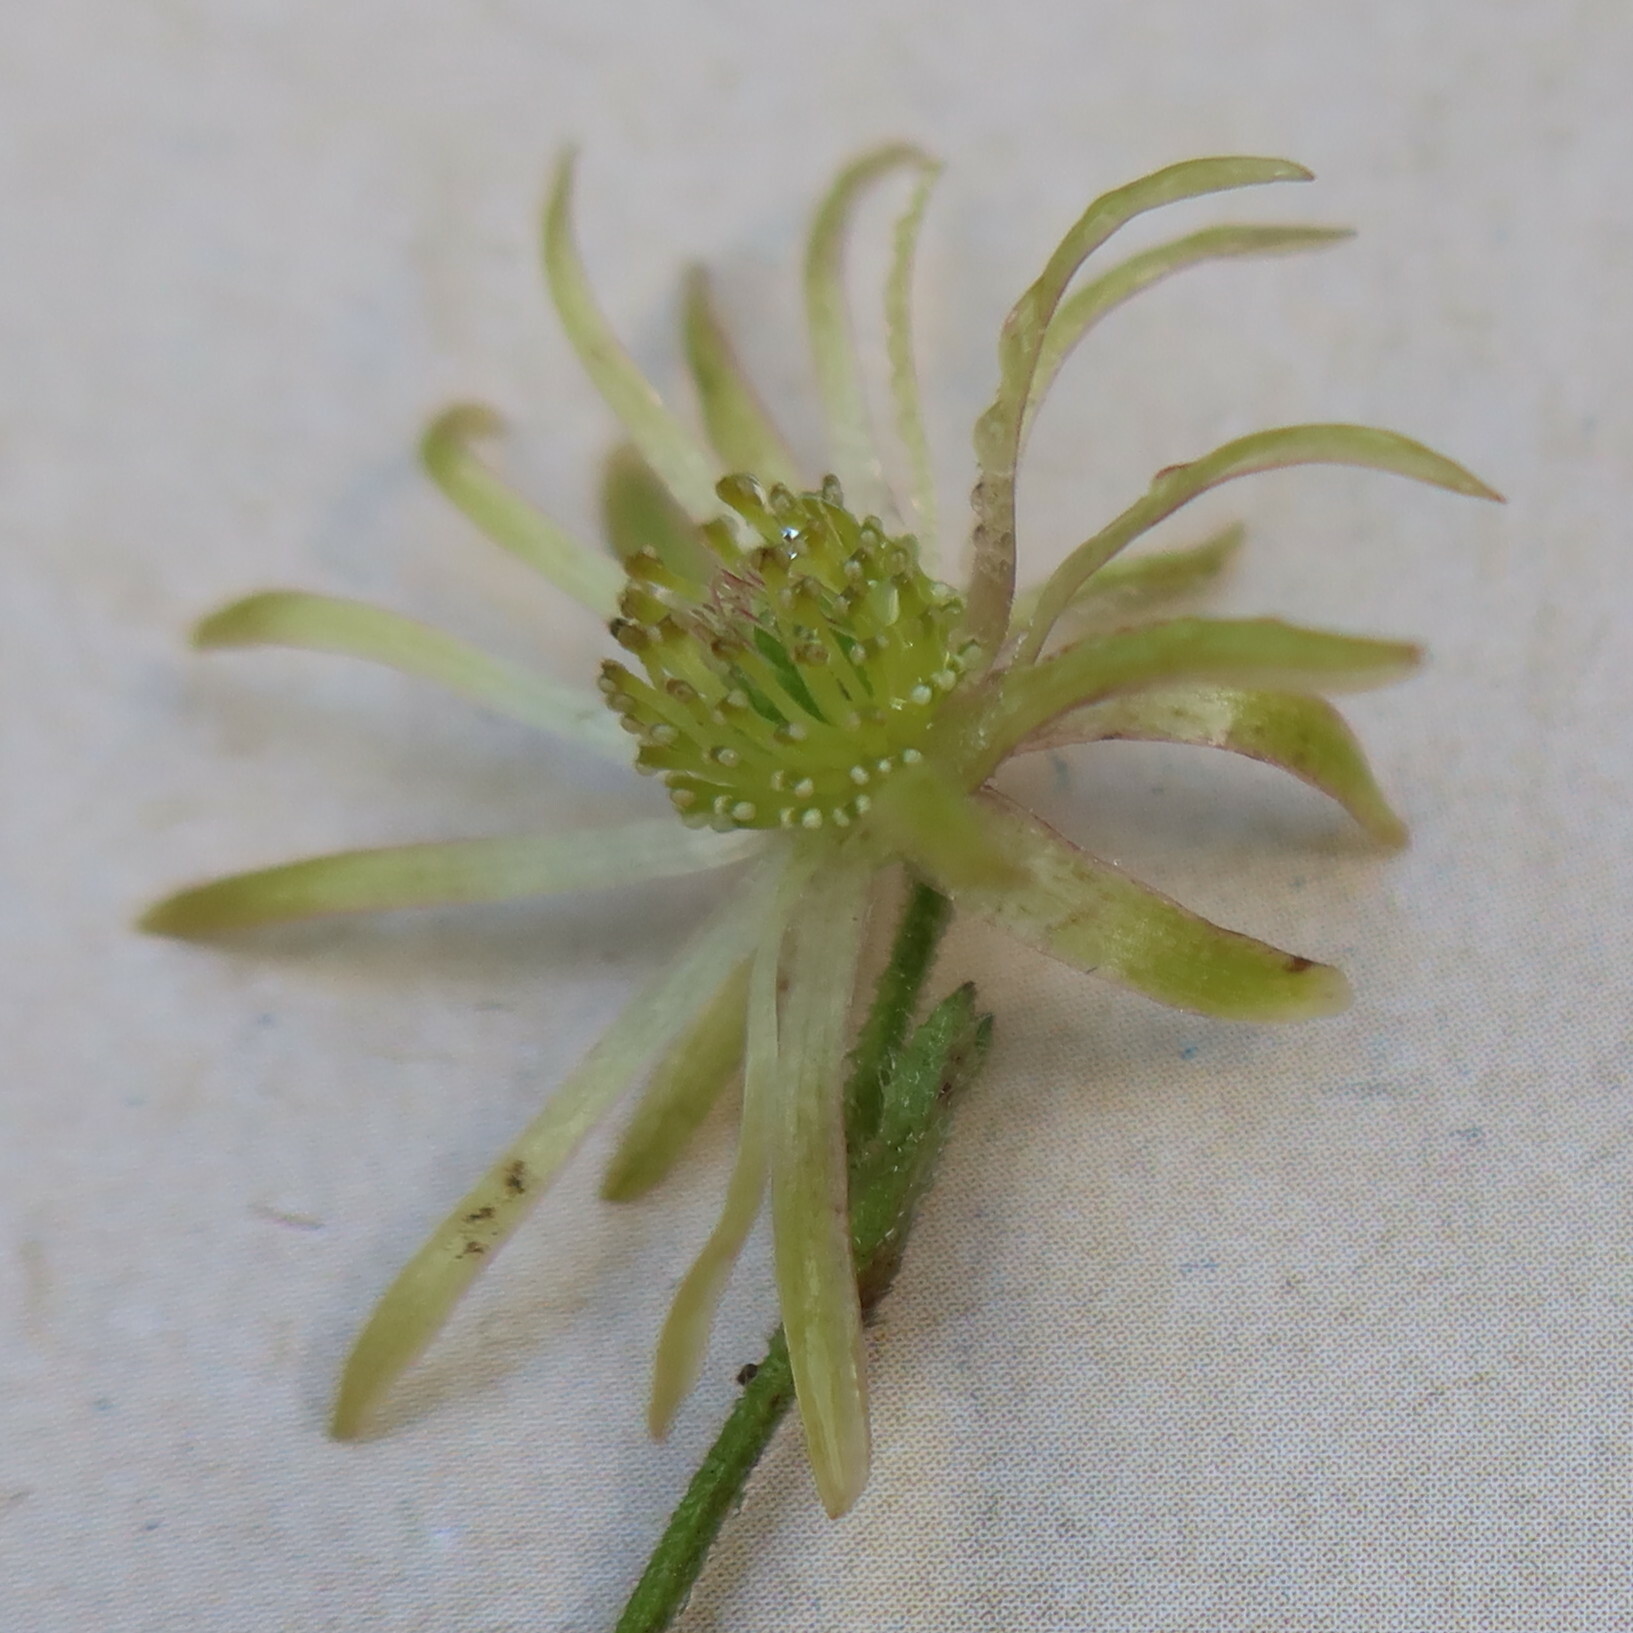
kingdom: Plantae
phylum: Tracheophyta
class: Magnoliopsida
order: Ranunculales
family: Ranunculaceae
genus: Knowltonia
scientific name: Knowltonia capensis
